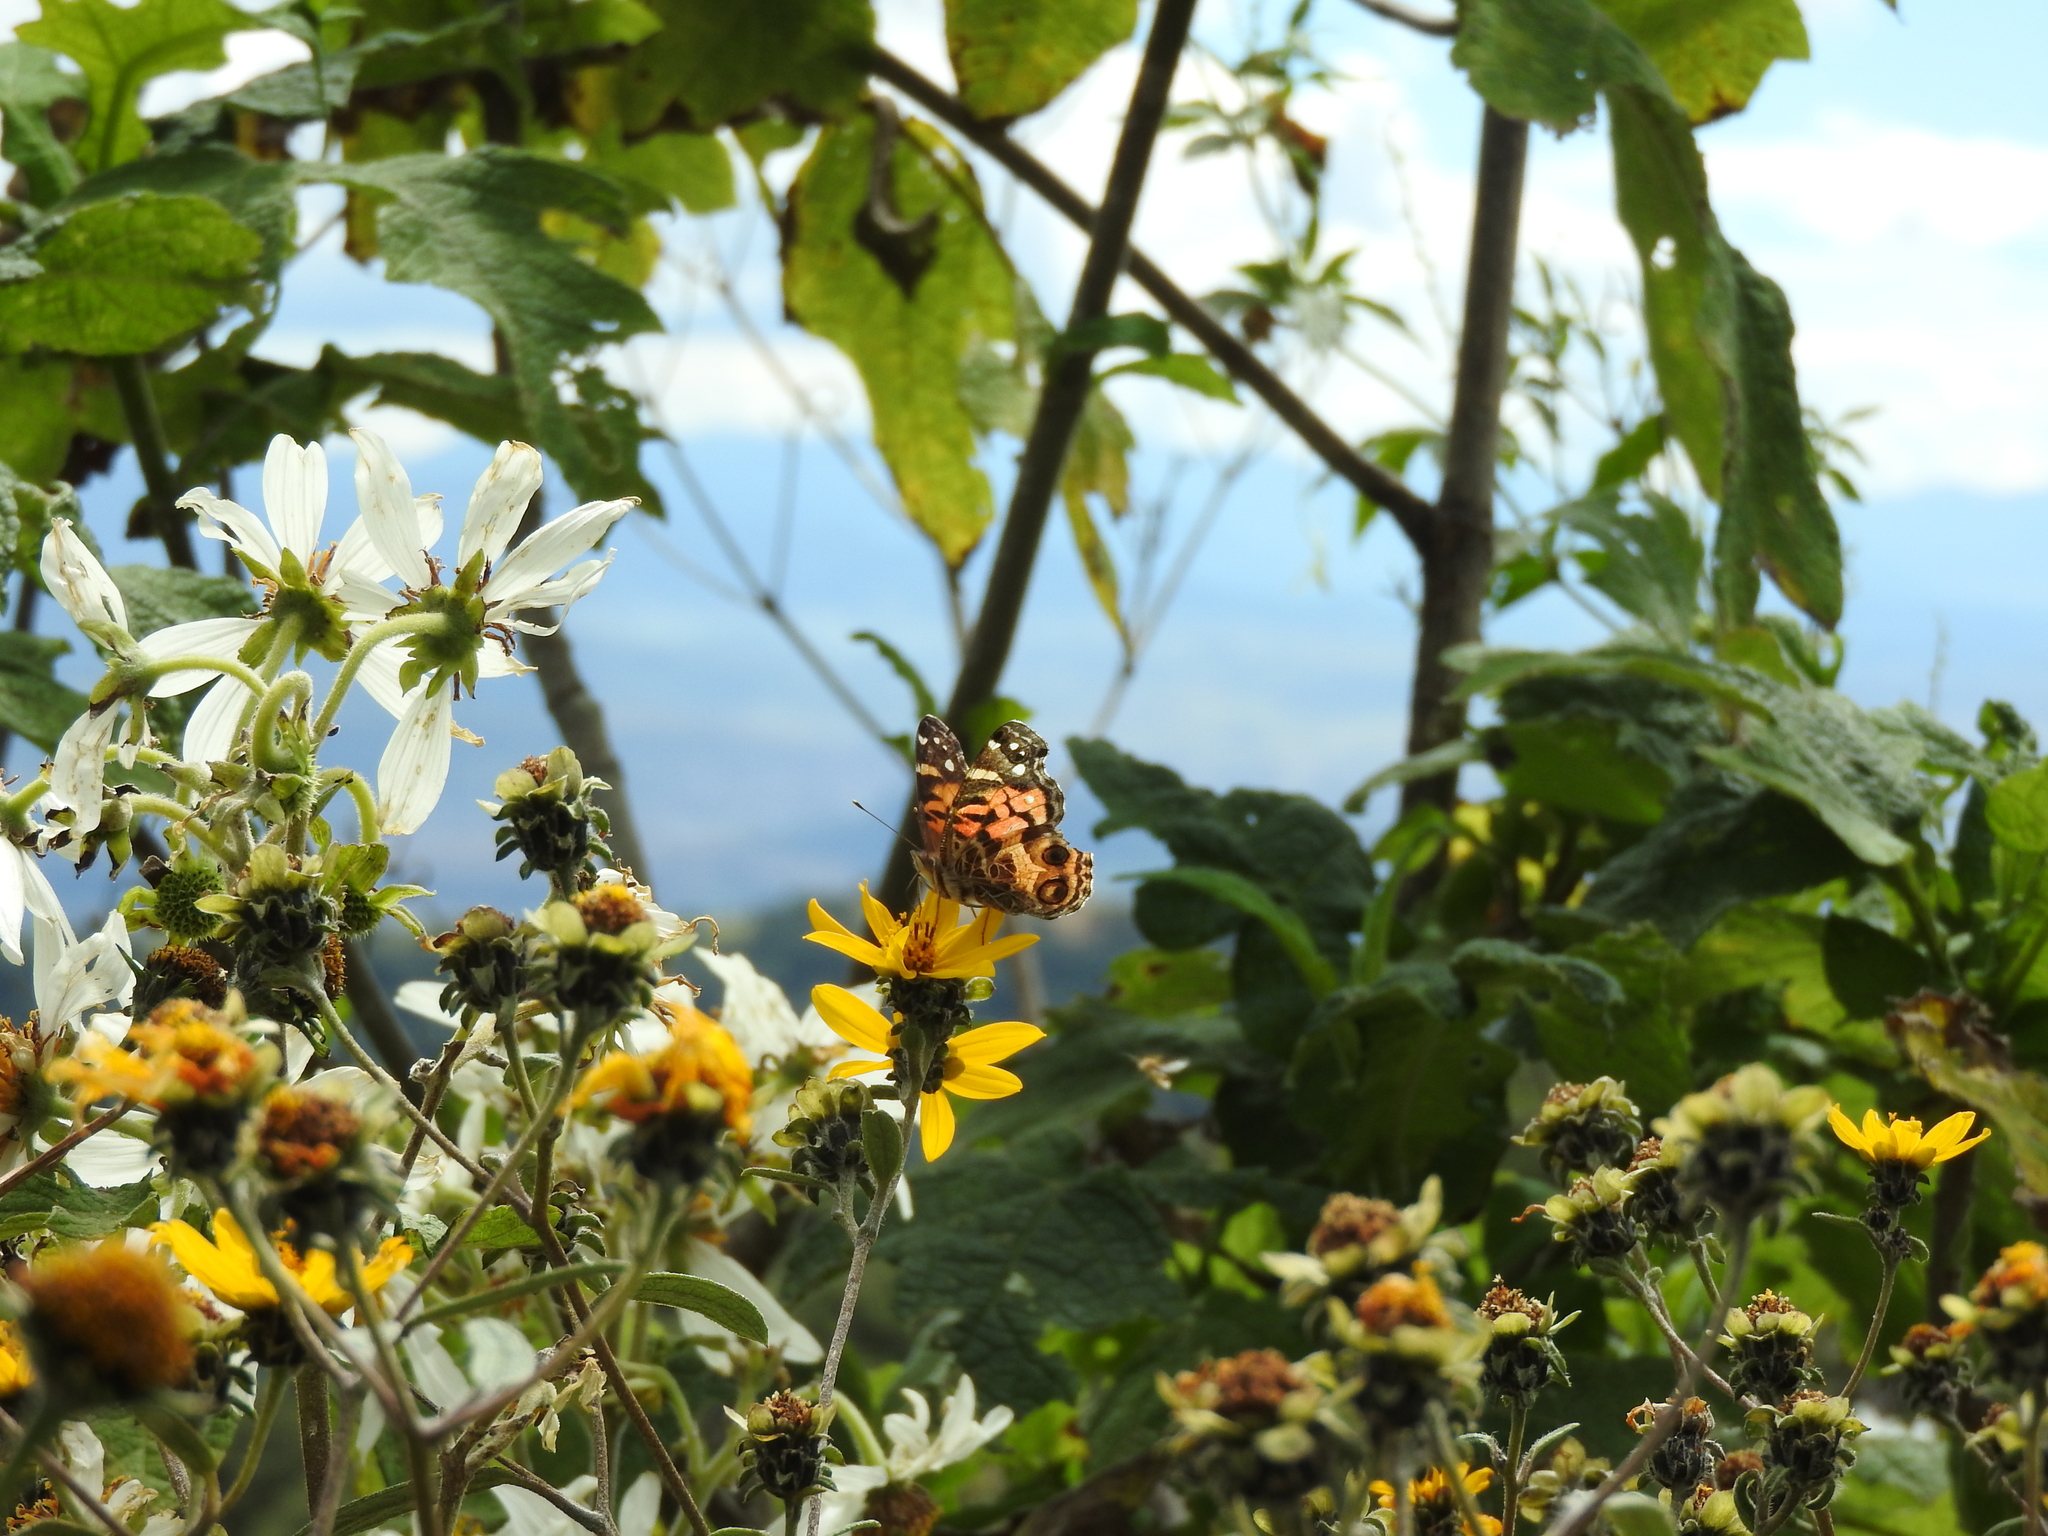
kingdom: Animalia
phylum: Arthropoda
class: Insecta
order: Lepidoptera
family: Nymphalidae
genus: Vanessa
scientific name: Vanessa virginiensis
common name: American lady
